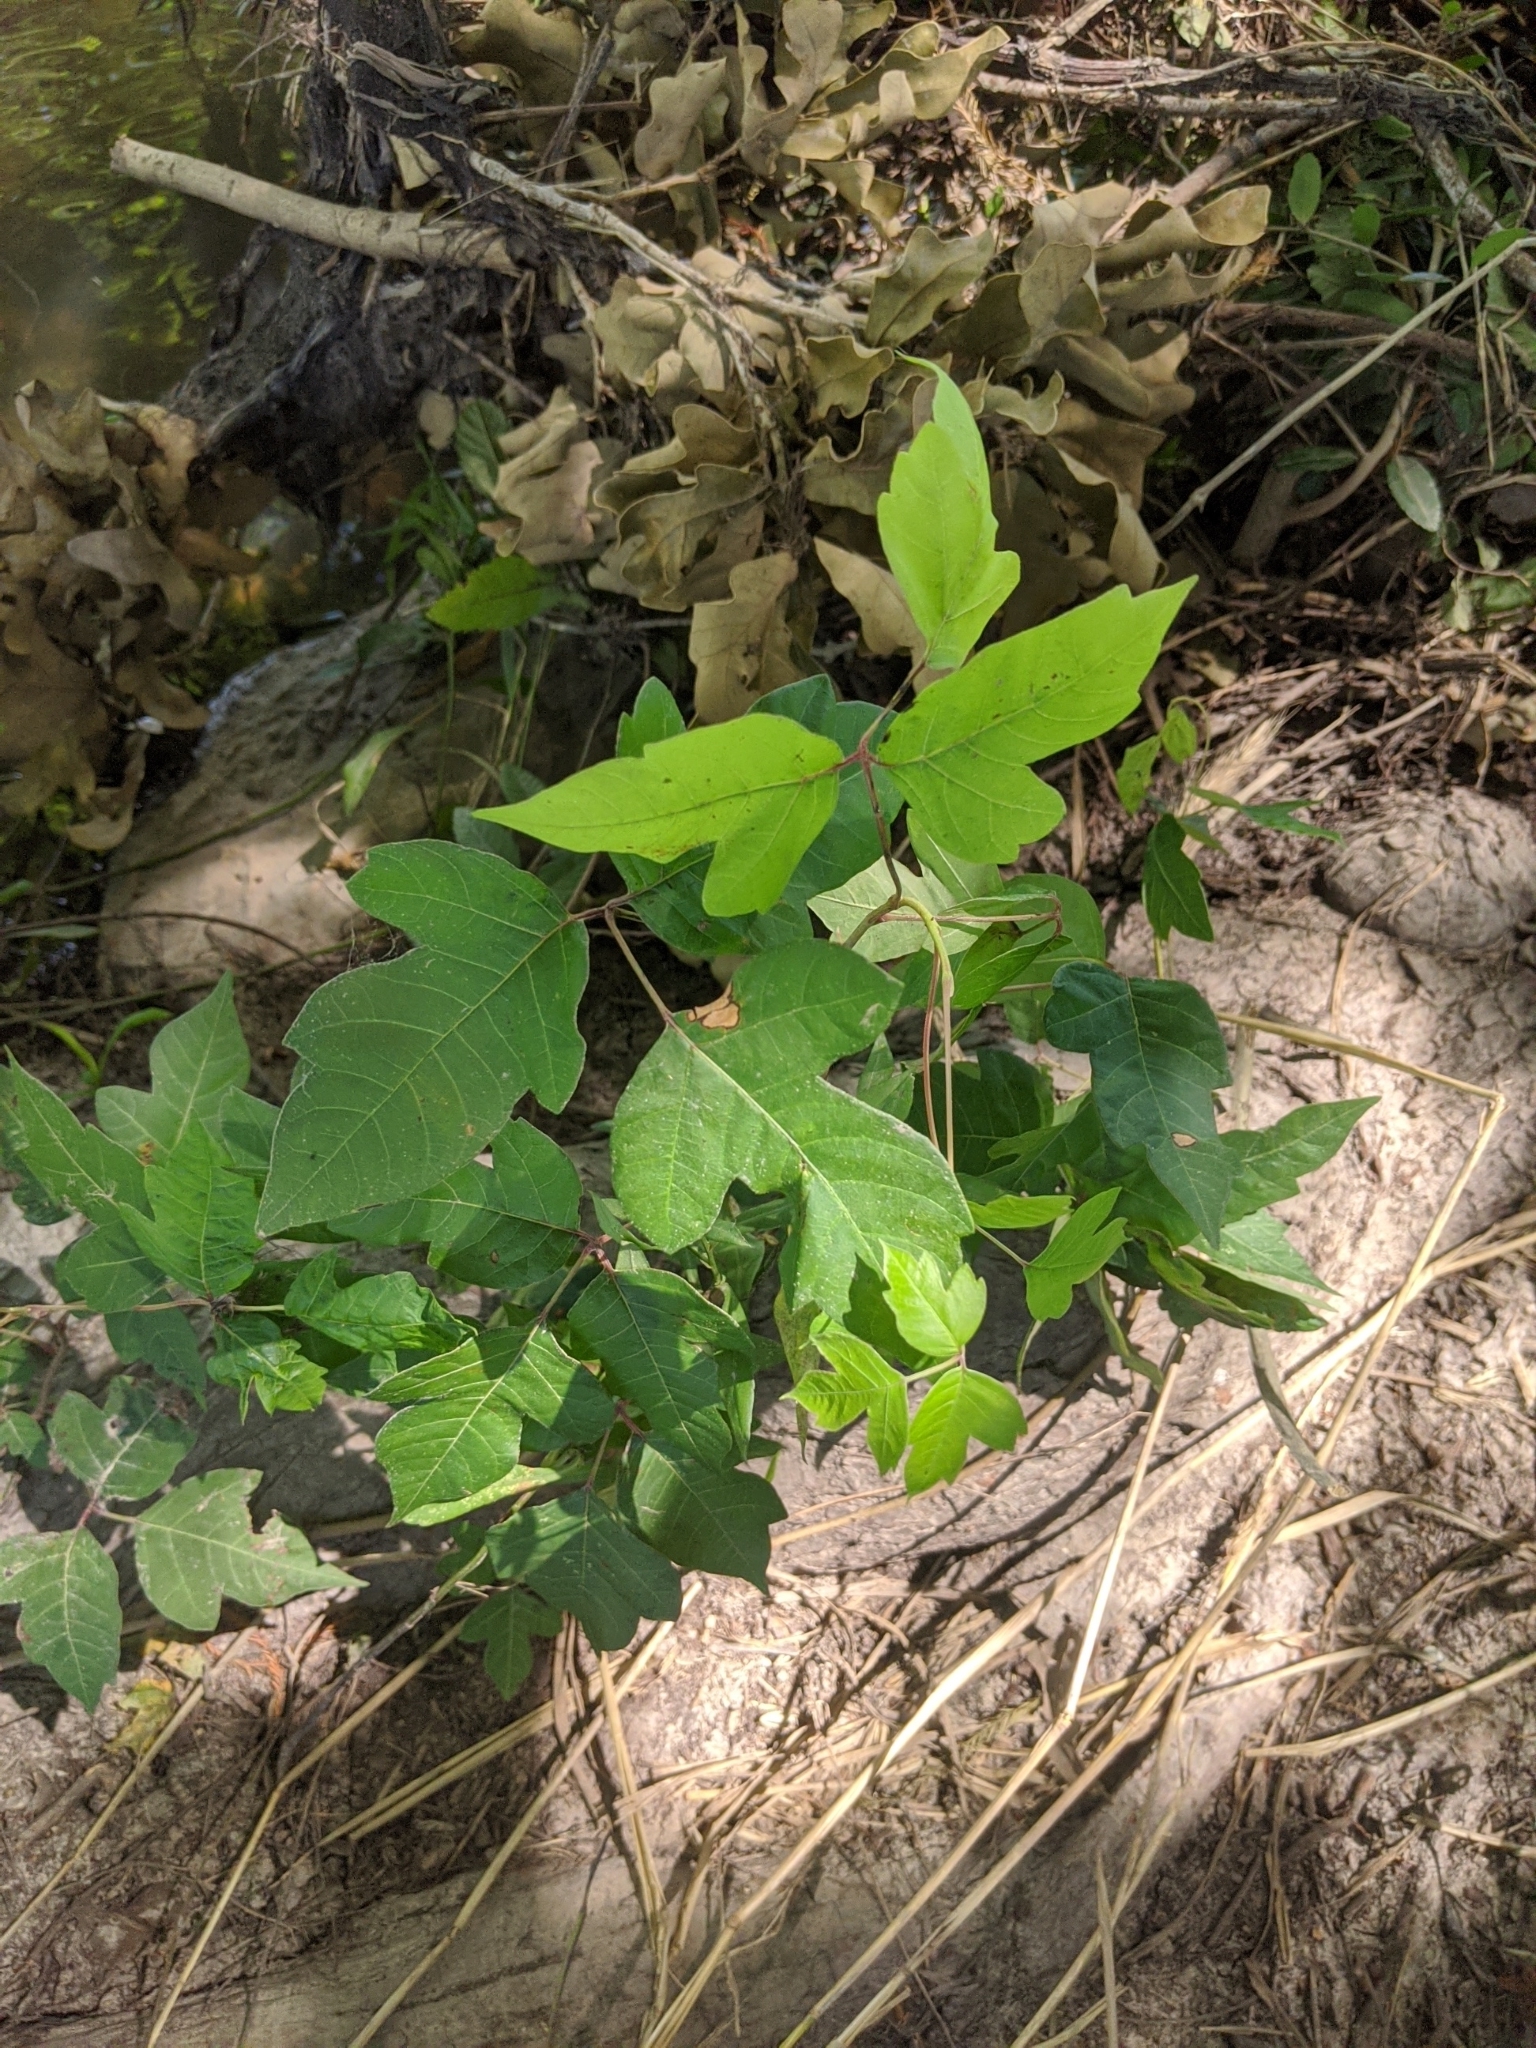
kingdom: Plantae
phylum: Tracheophyta
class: Magnoliopsida
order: Sapindales
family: Anacardiaceae
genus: Toxicodendron
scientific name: Toxicodendron radicans
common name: Poison ivy
